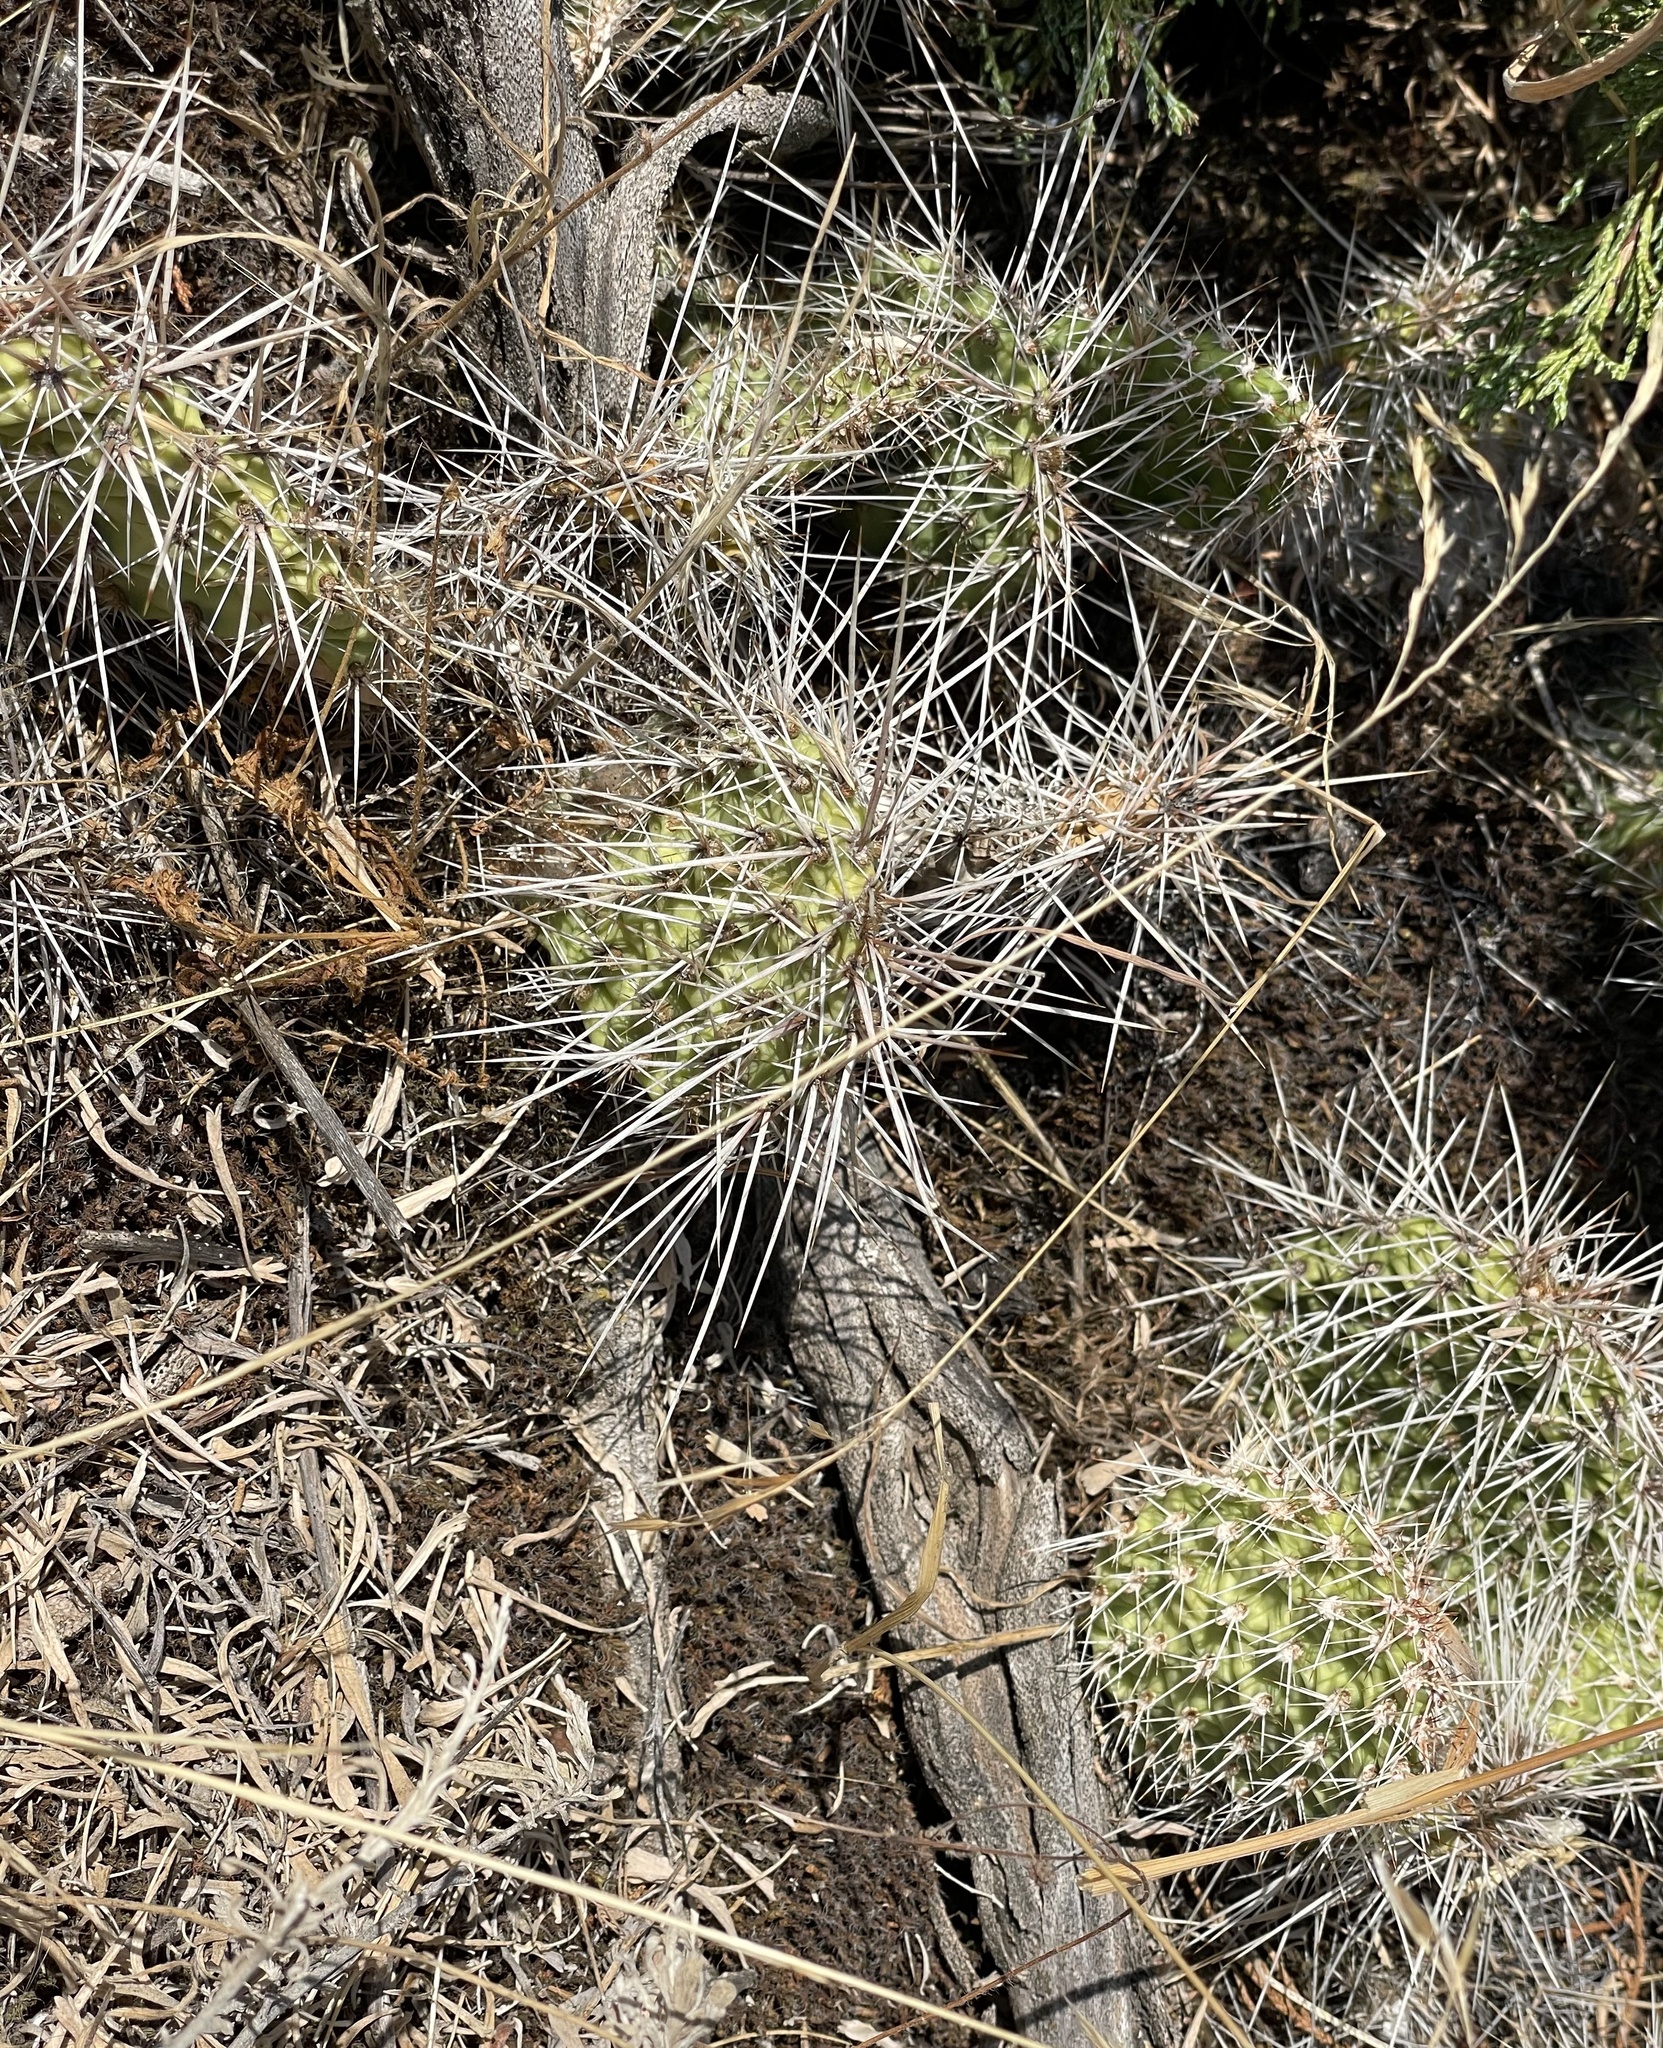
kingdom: Plantae
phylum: Tracheophyta
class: Magnoliopsida
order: Caryophyllales
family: Cactaceae
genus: Opuntia
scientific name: Opuntia polyacantha
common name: Plains prickly-pear
